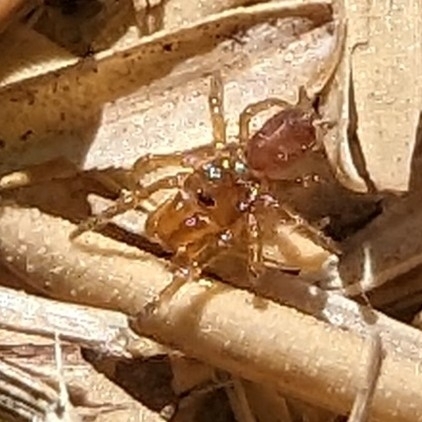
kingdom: Animalia
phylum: Arthropoda
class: Arachnida
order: Araneae
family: Atypidae
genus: Atypus
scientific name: Atypus karschi
